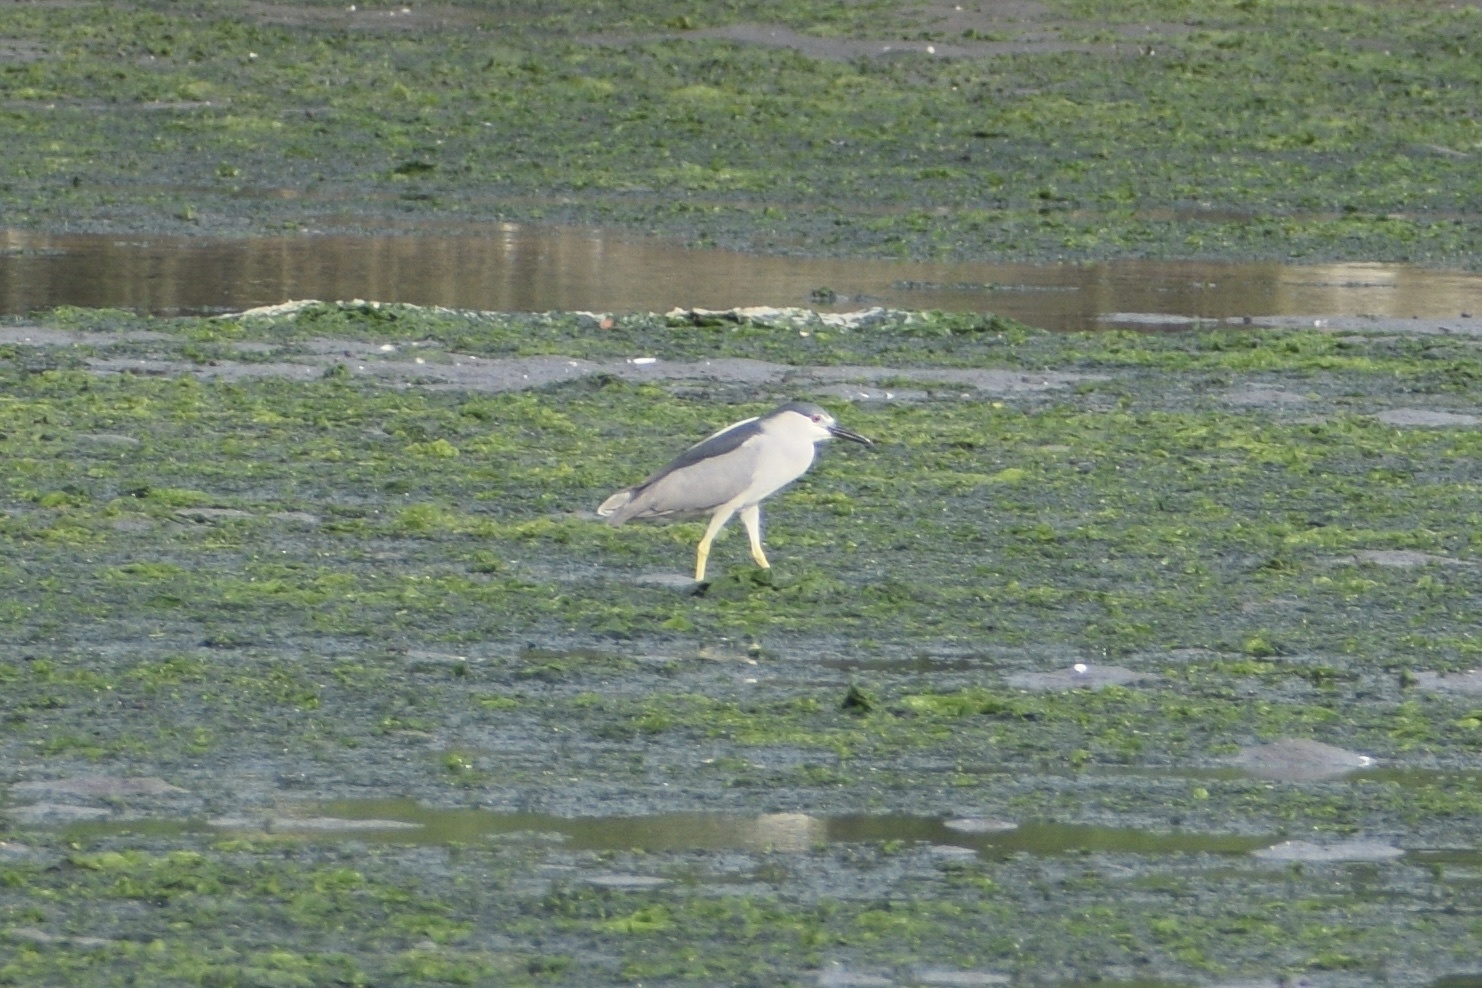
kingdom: Animalia
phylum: Chordata
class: Aves
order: Pelecaniformes
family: Ardeidae
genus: Nycticorax
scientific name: Nycticorax nycticorax
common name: Black-crowned night heron
